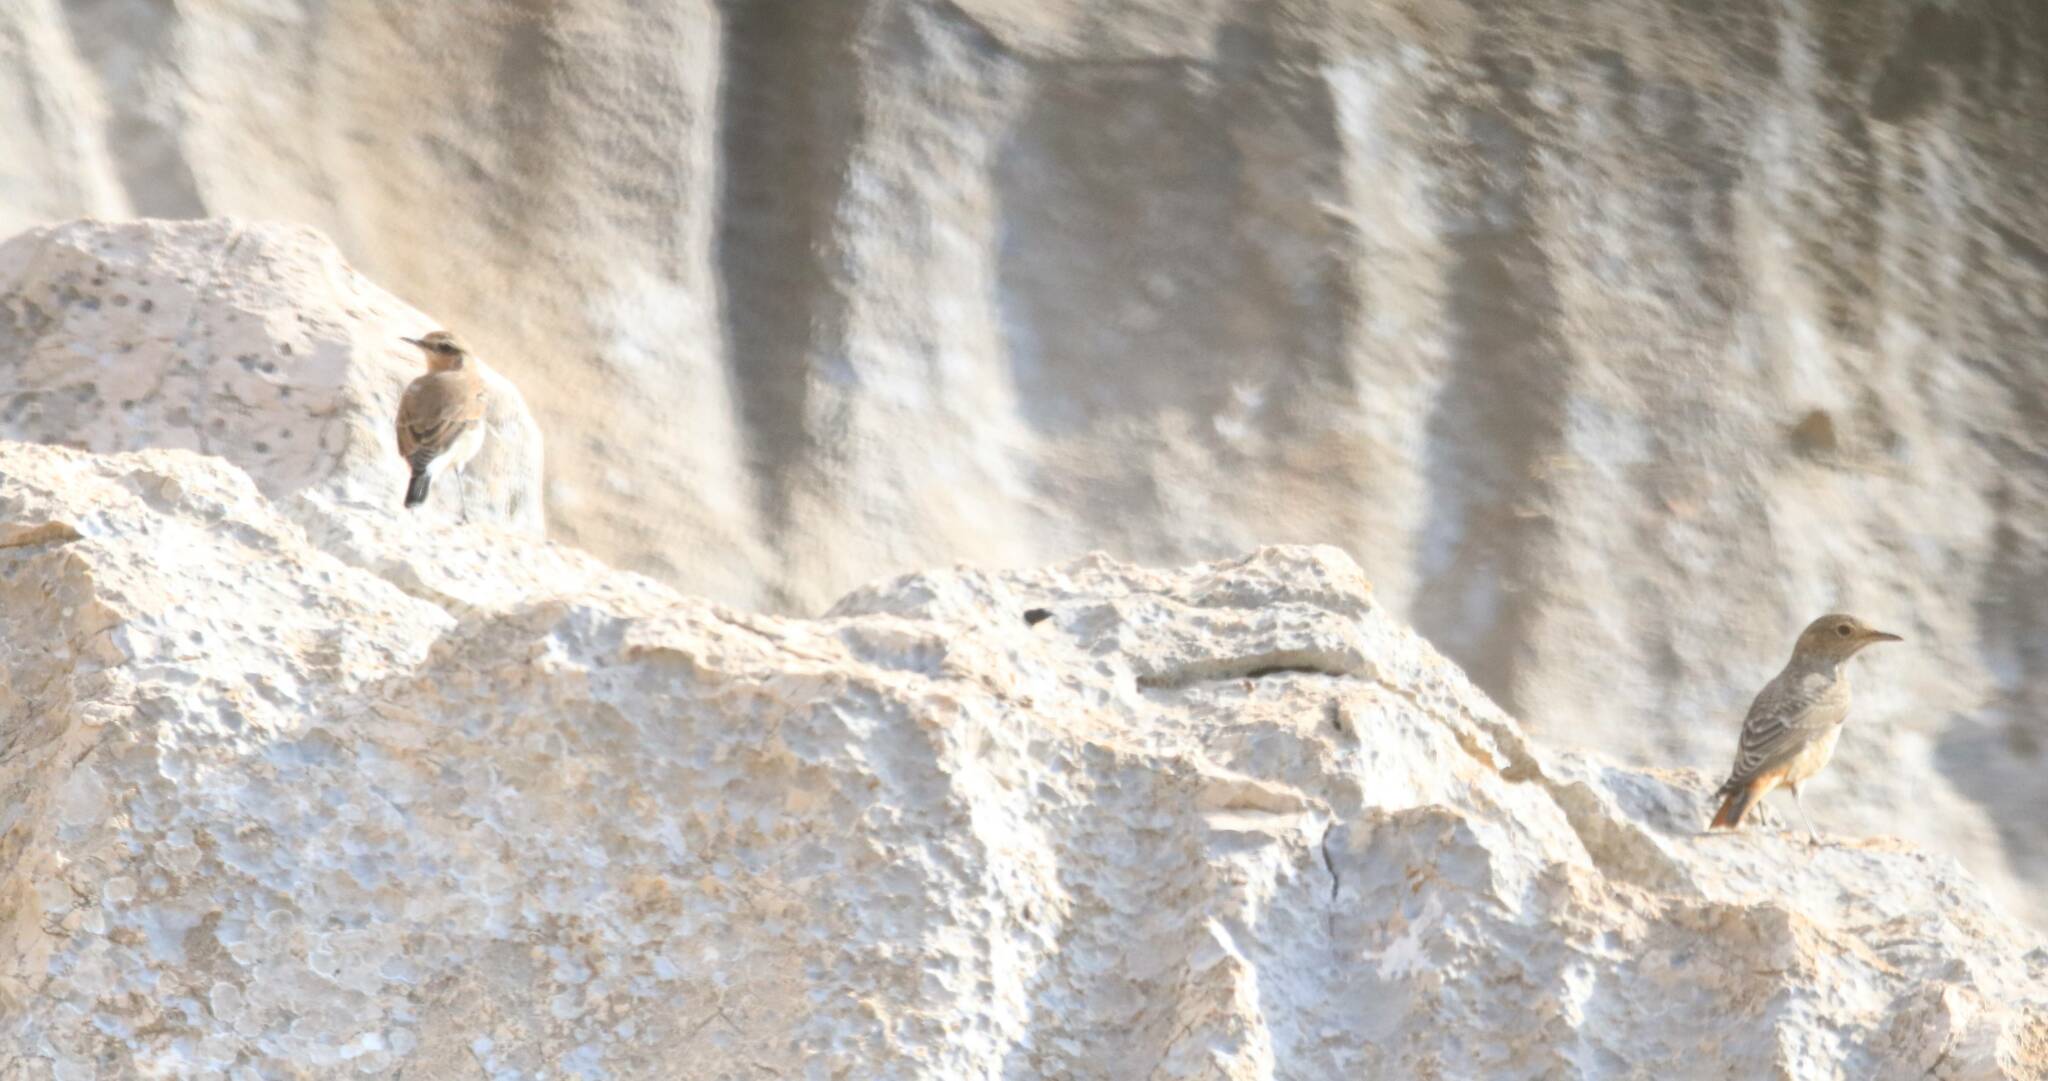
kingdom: Animalia
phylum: Chordata
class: Aves
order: Passeriformes
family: Muscicapidae
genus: Monticola
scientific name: Monticola saxatilis
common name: Rufous-tailed rock thrush
